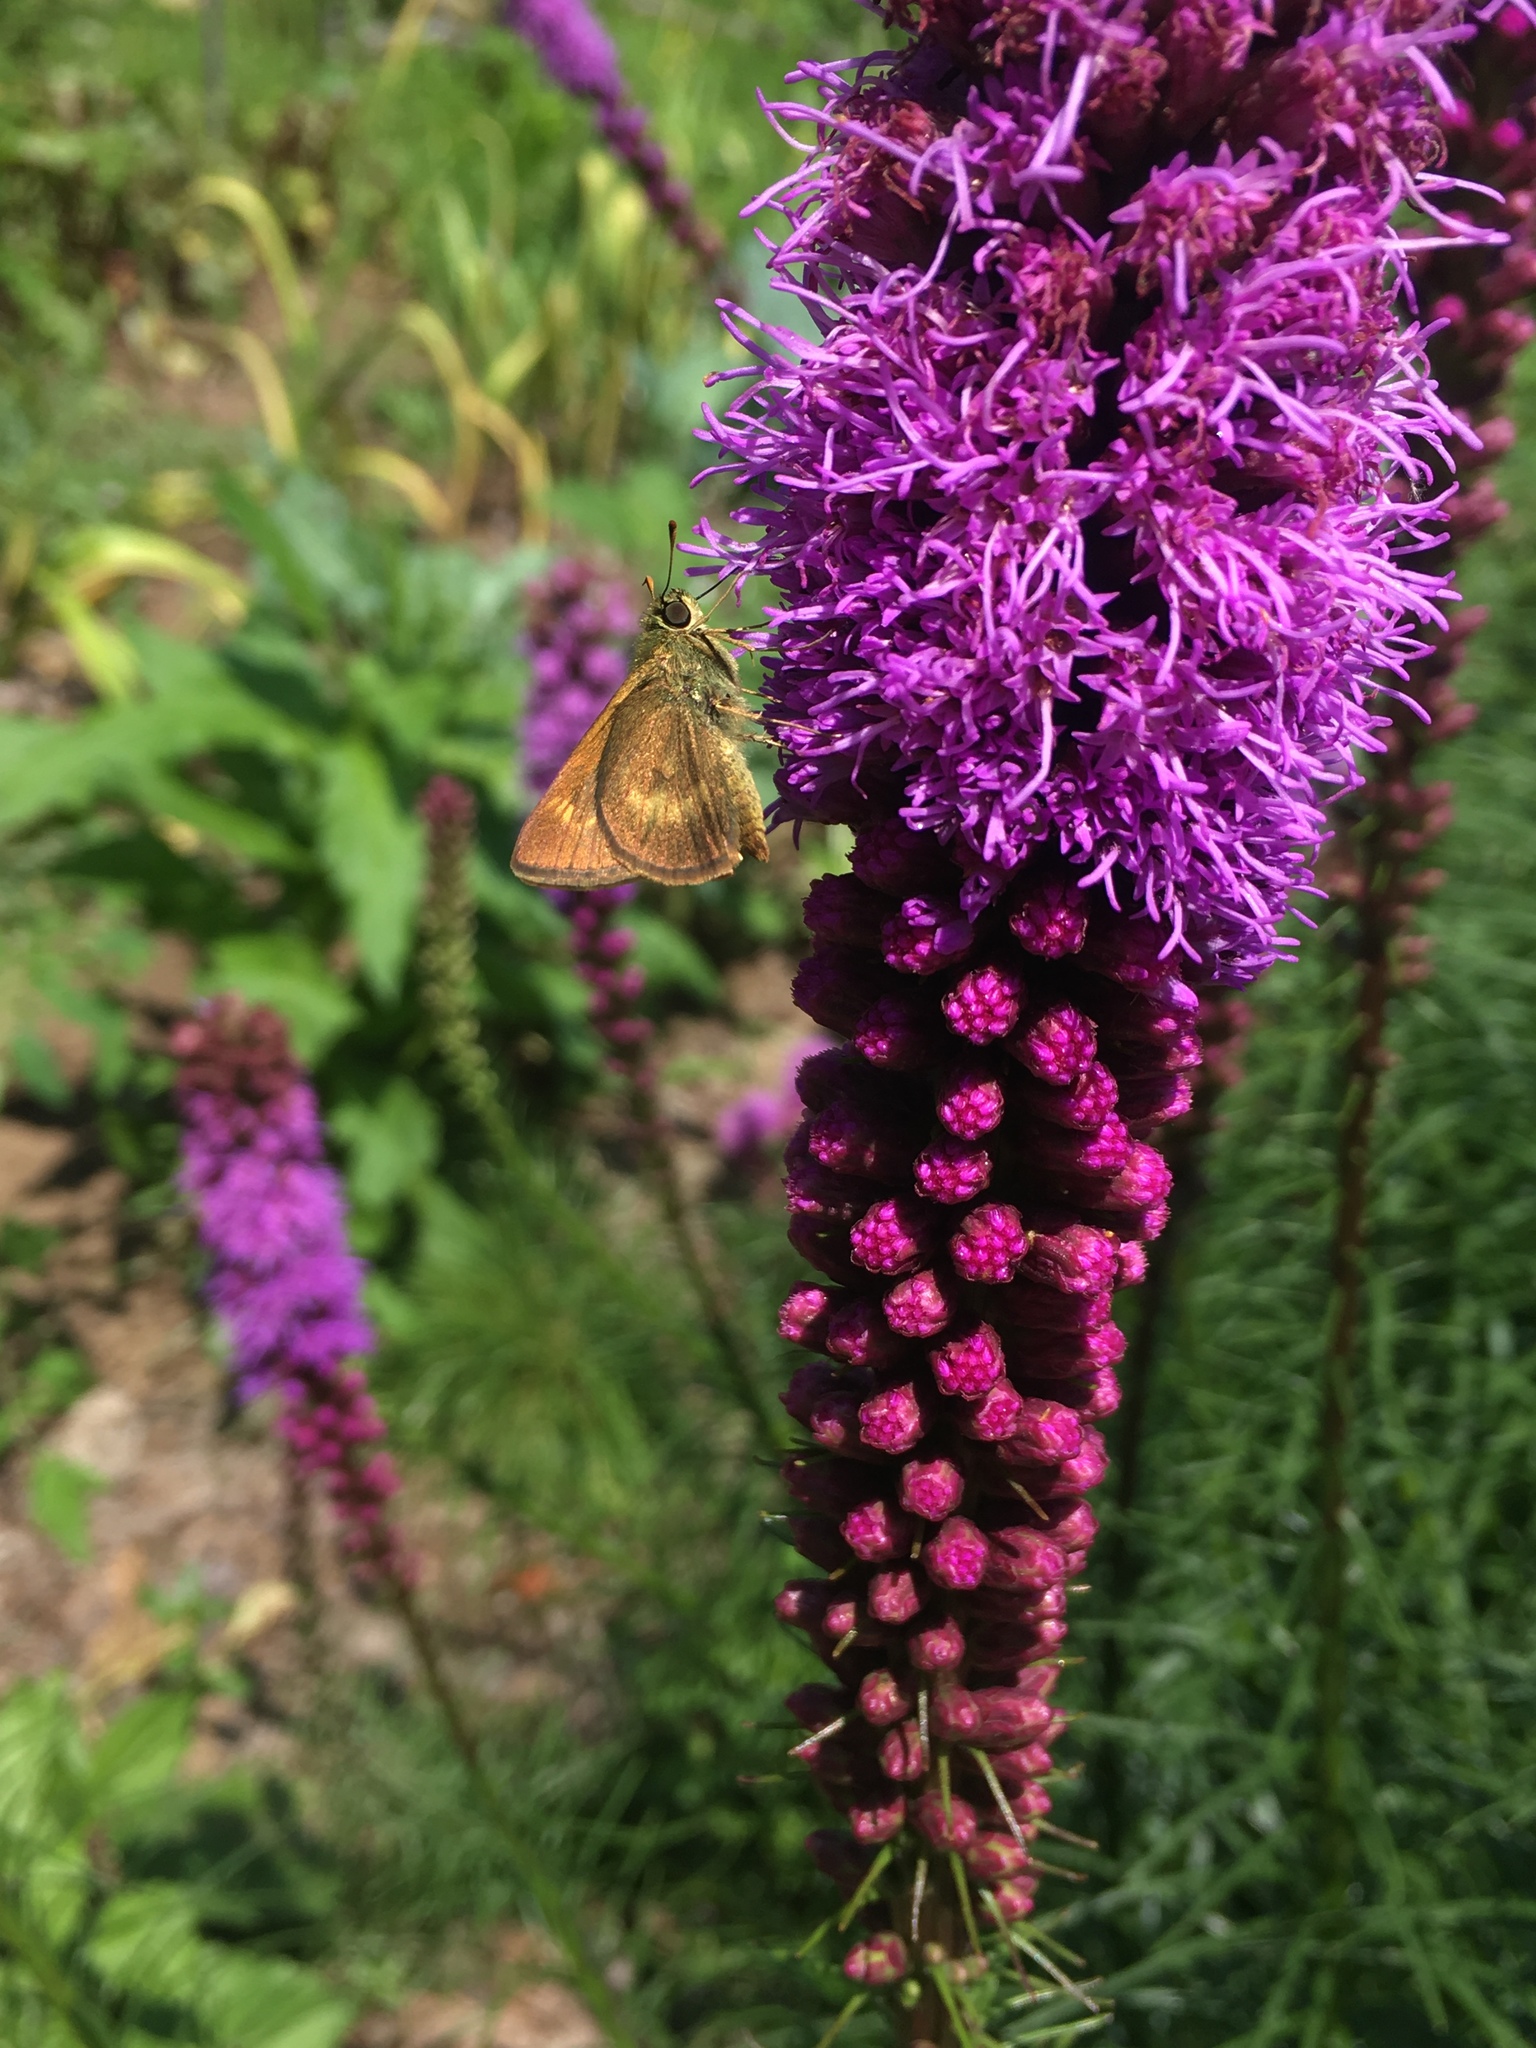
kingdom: Animalia
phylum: Arthropoda
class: Insecta
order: Lepidoptera
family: Hesperiidae
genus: Polites
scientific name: Polites egeremet
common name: Northern broken-dash
